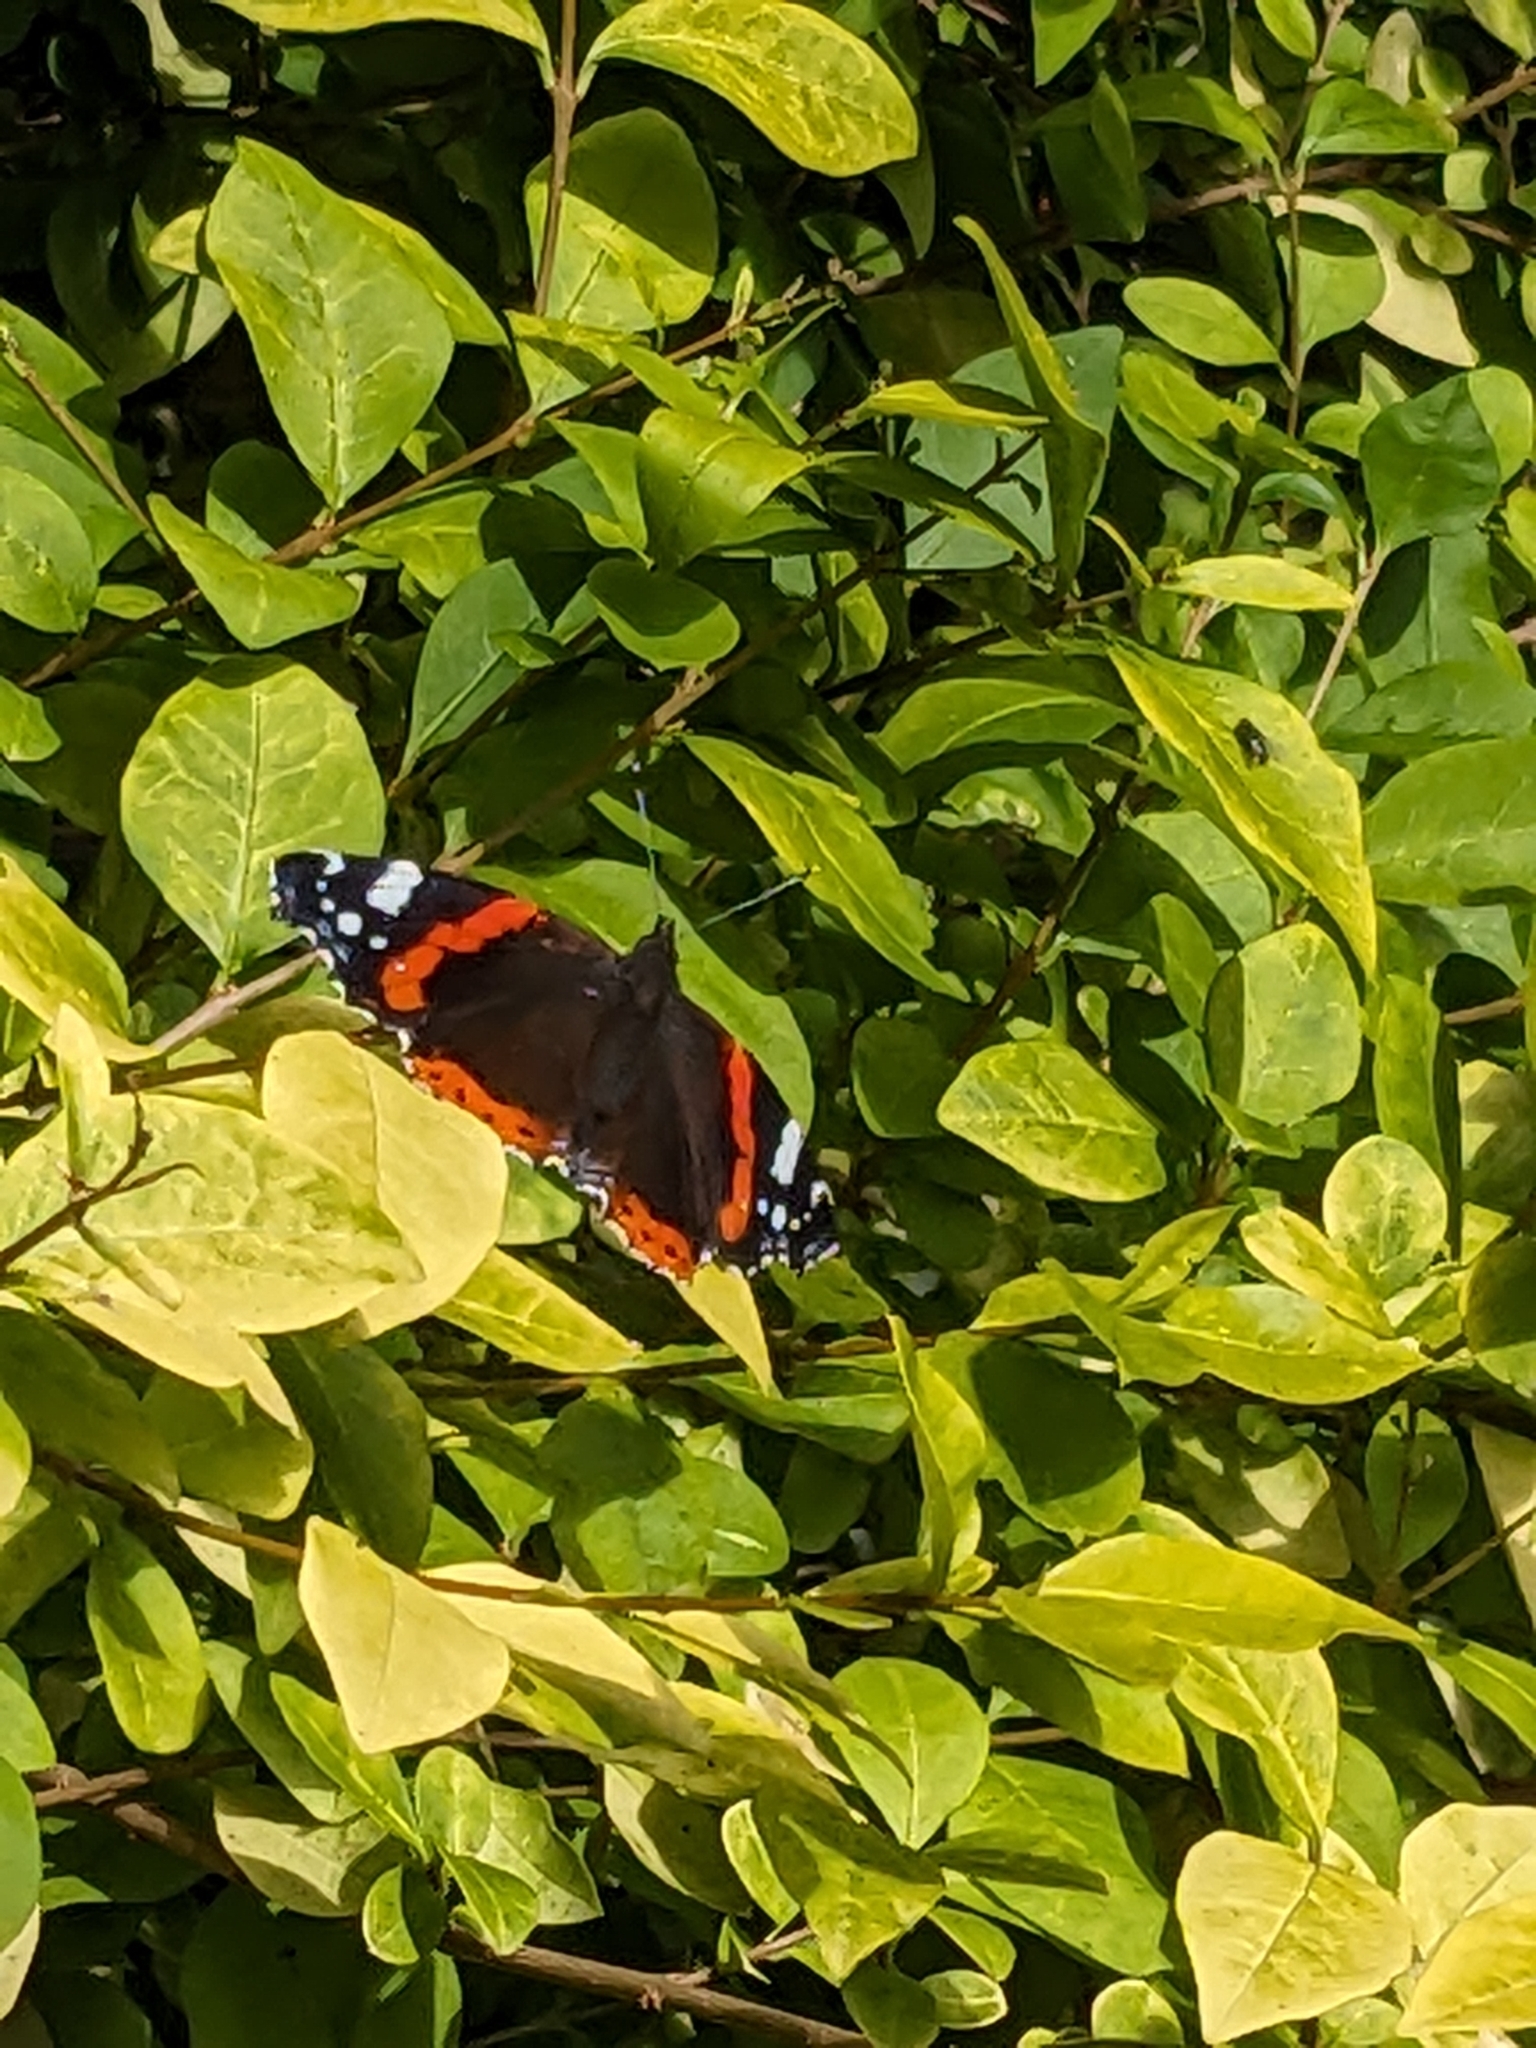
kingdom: Animalia
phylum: Arthropoda
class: Insecta
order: Lepidoptera
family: Nymphalidae
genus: Vanessa
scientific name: Vanessa atalanta
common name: Red admiral
